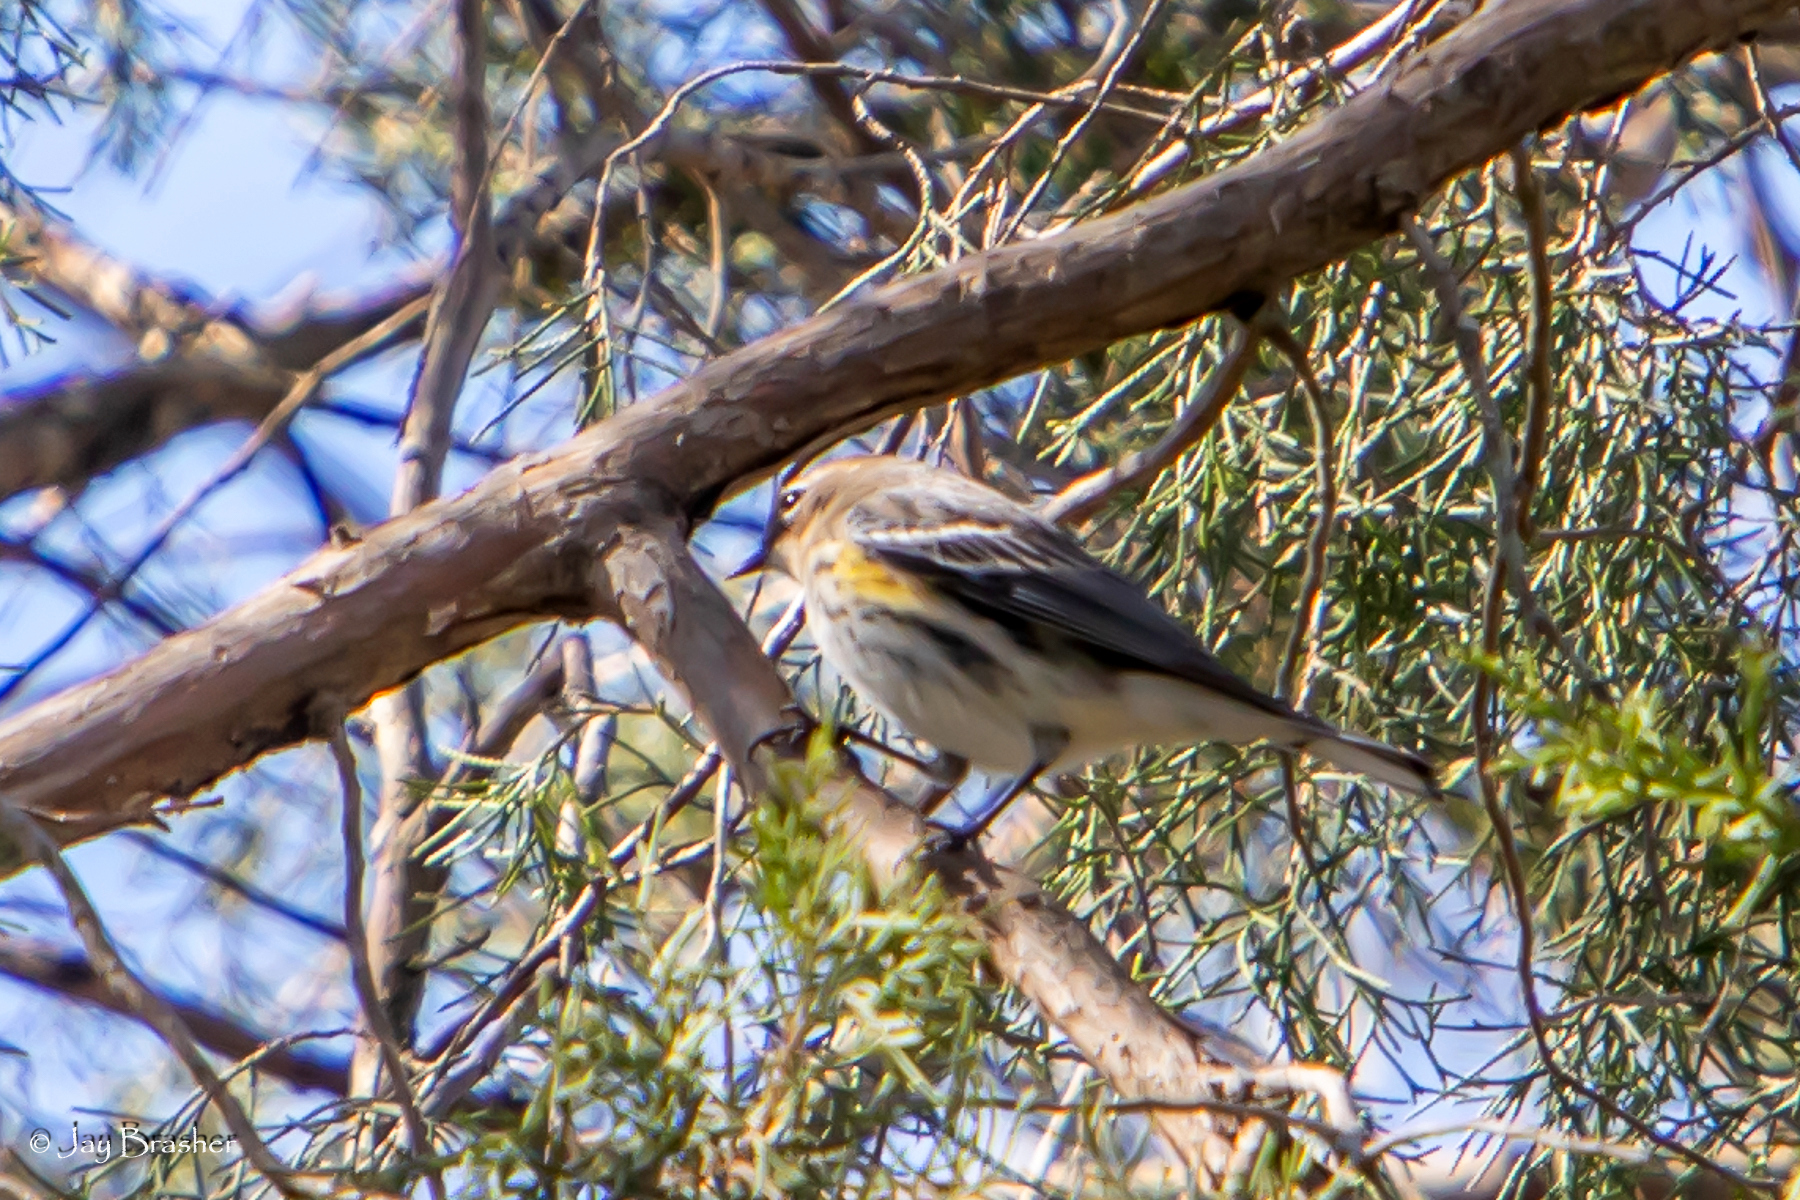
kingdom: Animalia
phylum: Chordata
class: Aves
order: Passeriformes
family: Parulidae
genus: Setophaga
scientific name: Setophaga coronata
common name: Myrtle warbler
